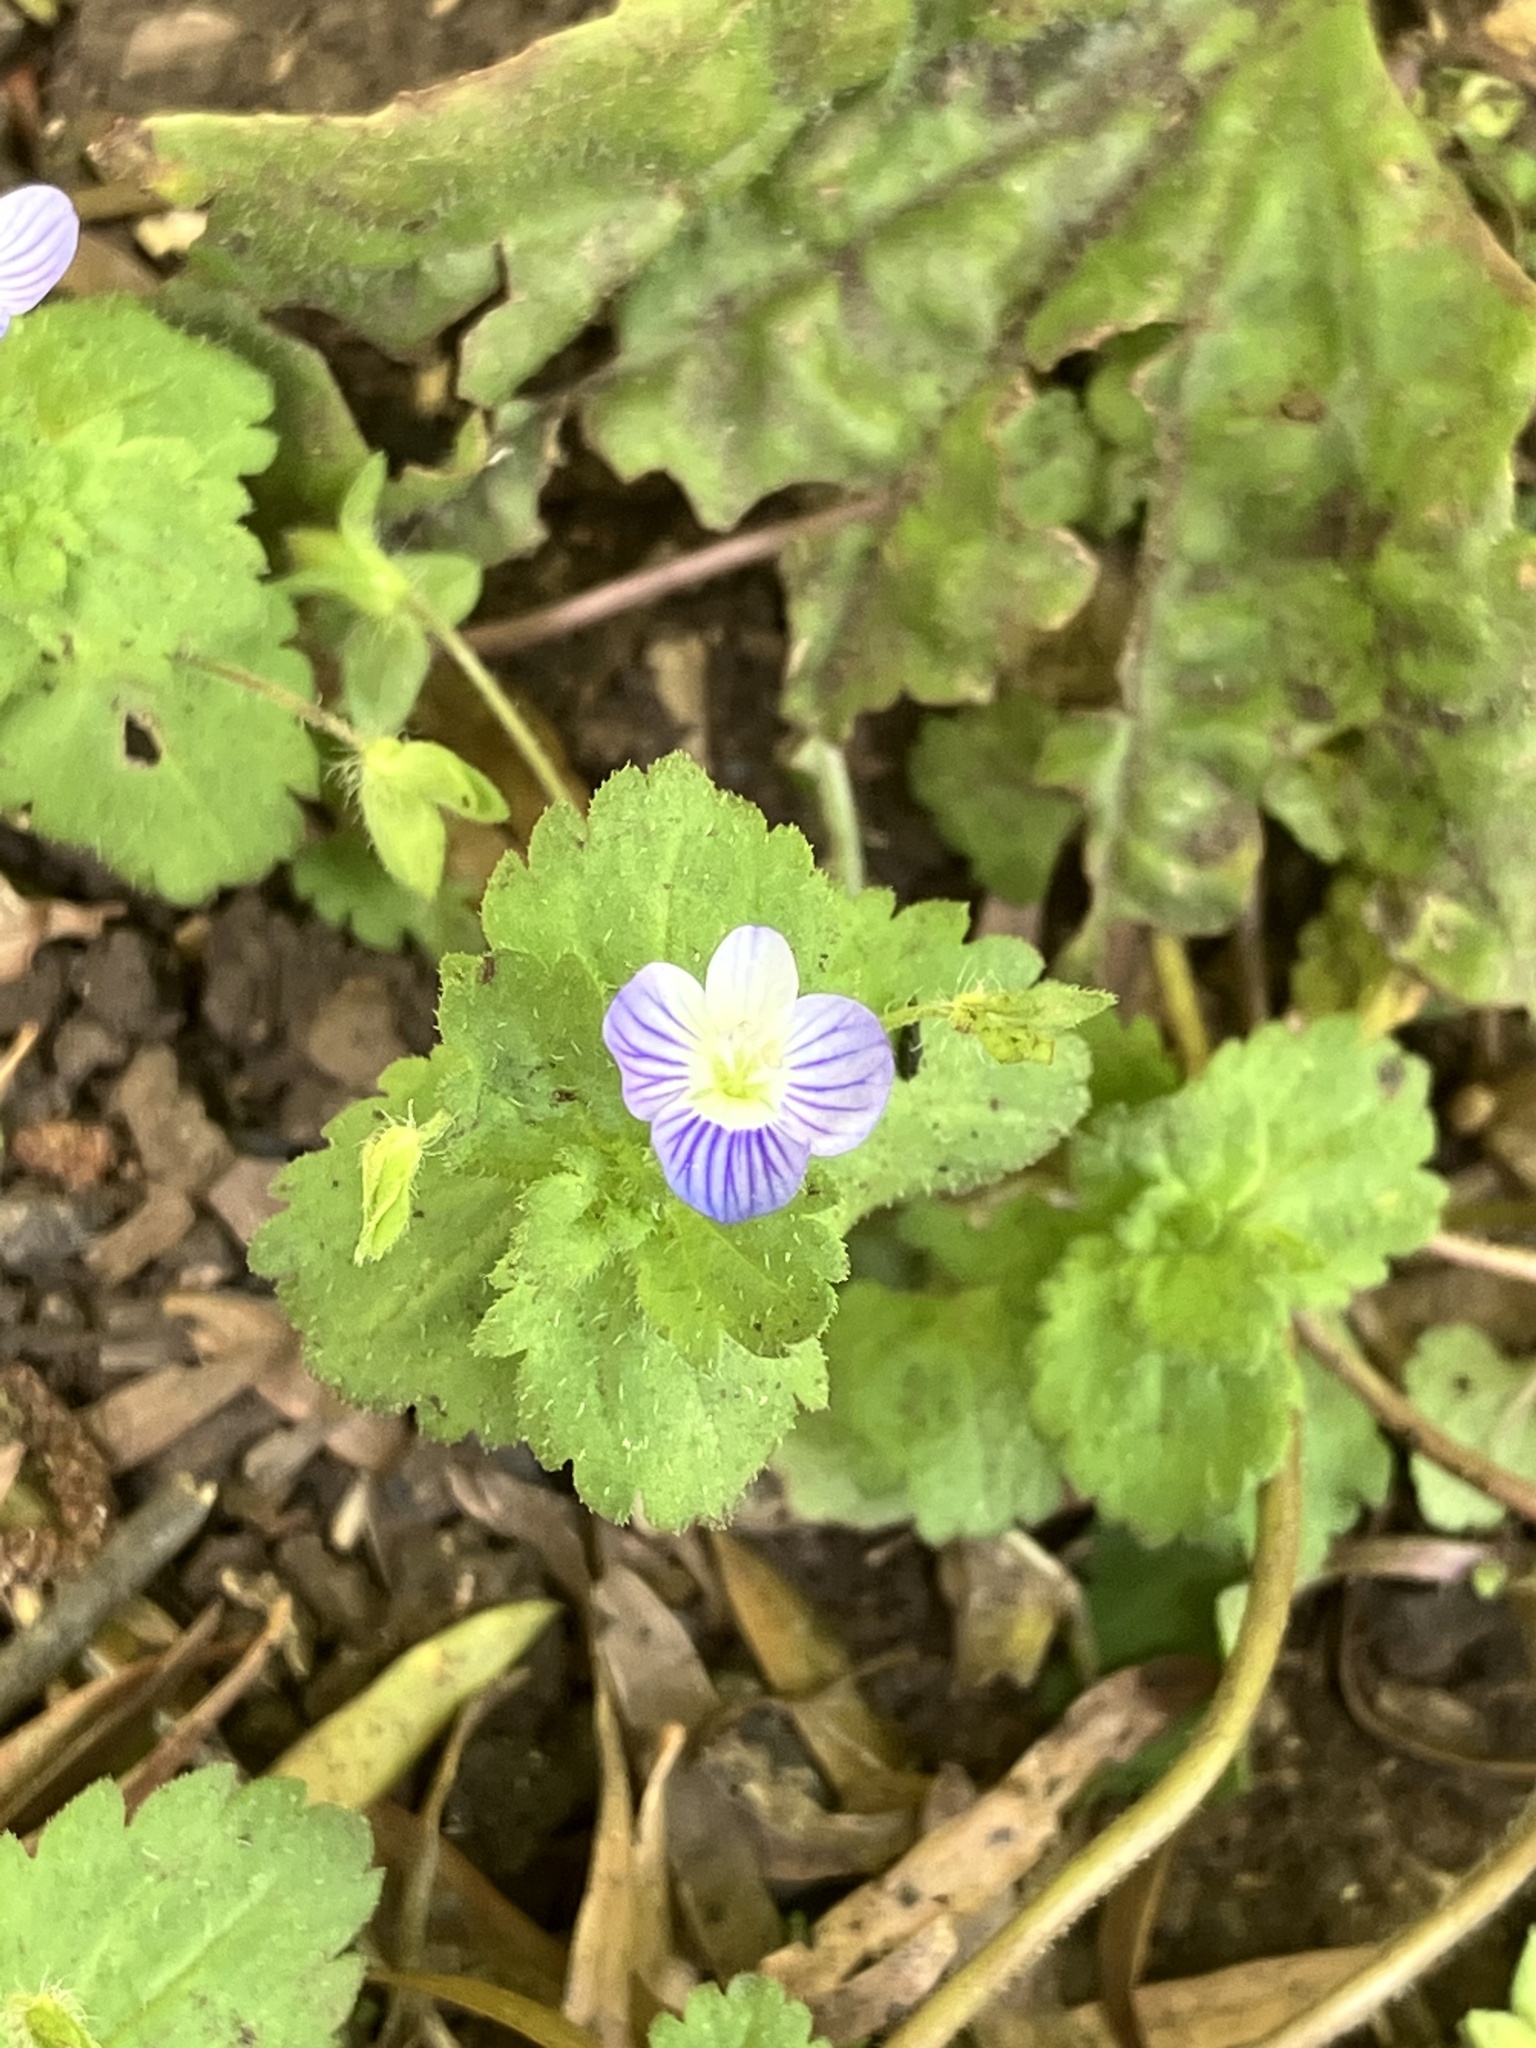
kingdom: Plantae
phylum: Tracheophyta
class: Magnoliopsida
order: Lamiales
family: Plantaginaceae
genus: Veronica
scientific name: Veronica persica
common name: Common field-speedwell
